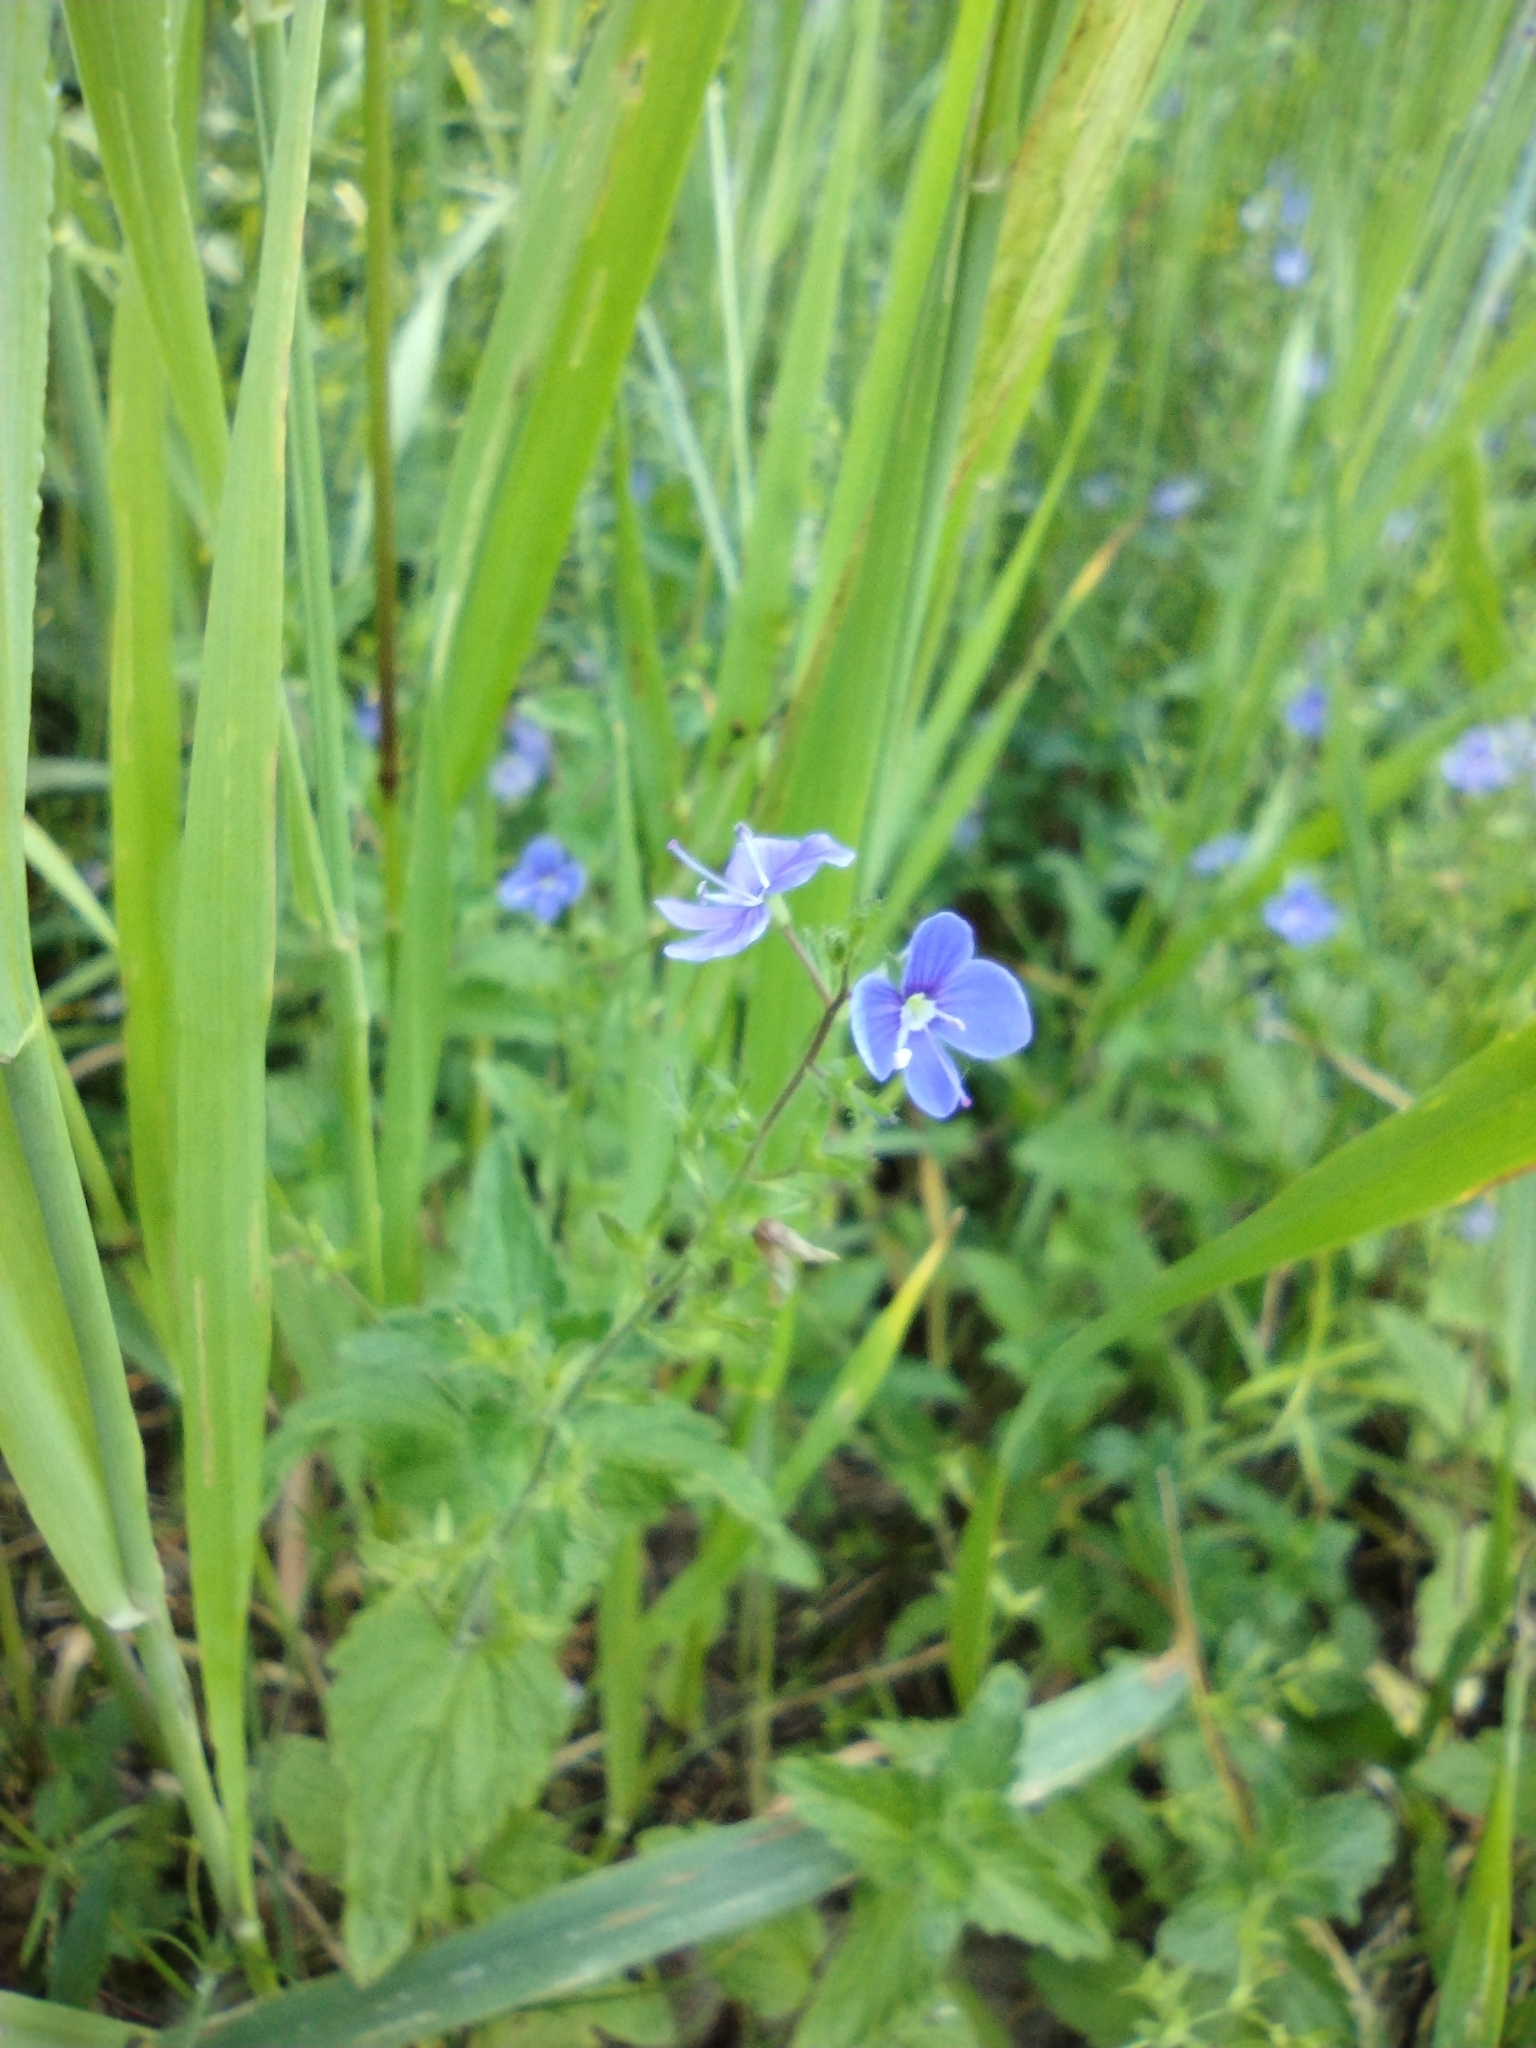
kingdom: Plantae
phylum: Tracheophyta
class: Magnoliopsida
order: Lamiales
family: Plantaginaceae
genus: Veronica
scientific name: Veronica chamaedrys
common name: Germander speedwell
